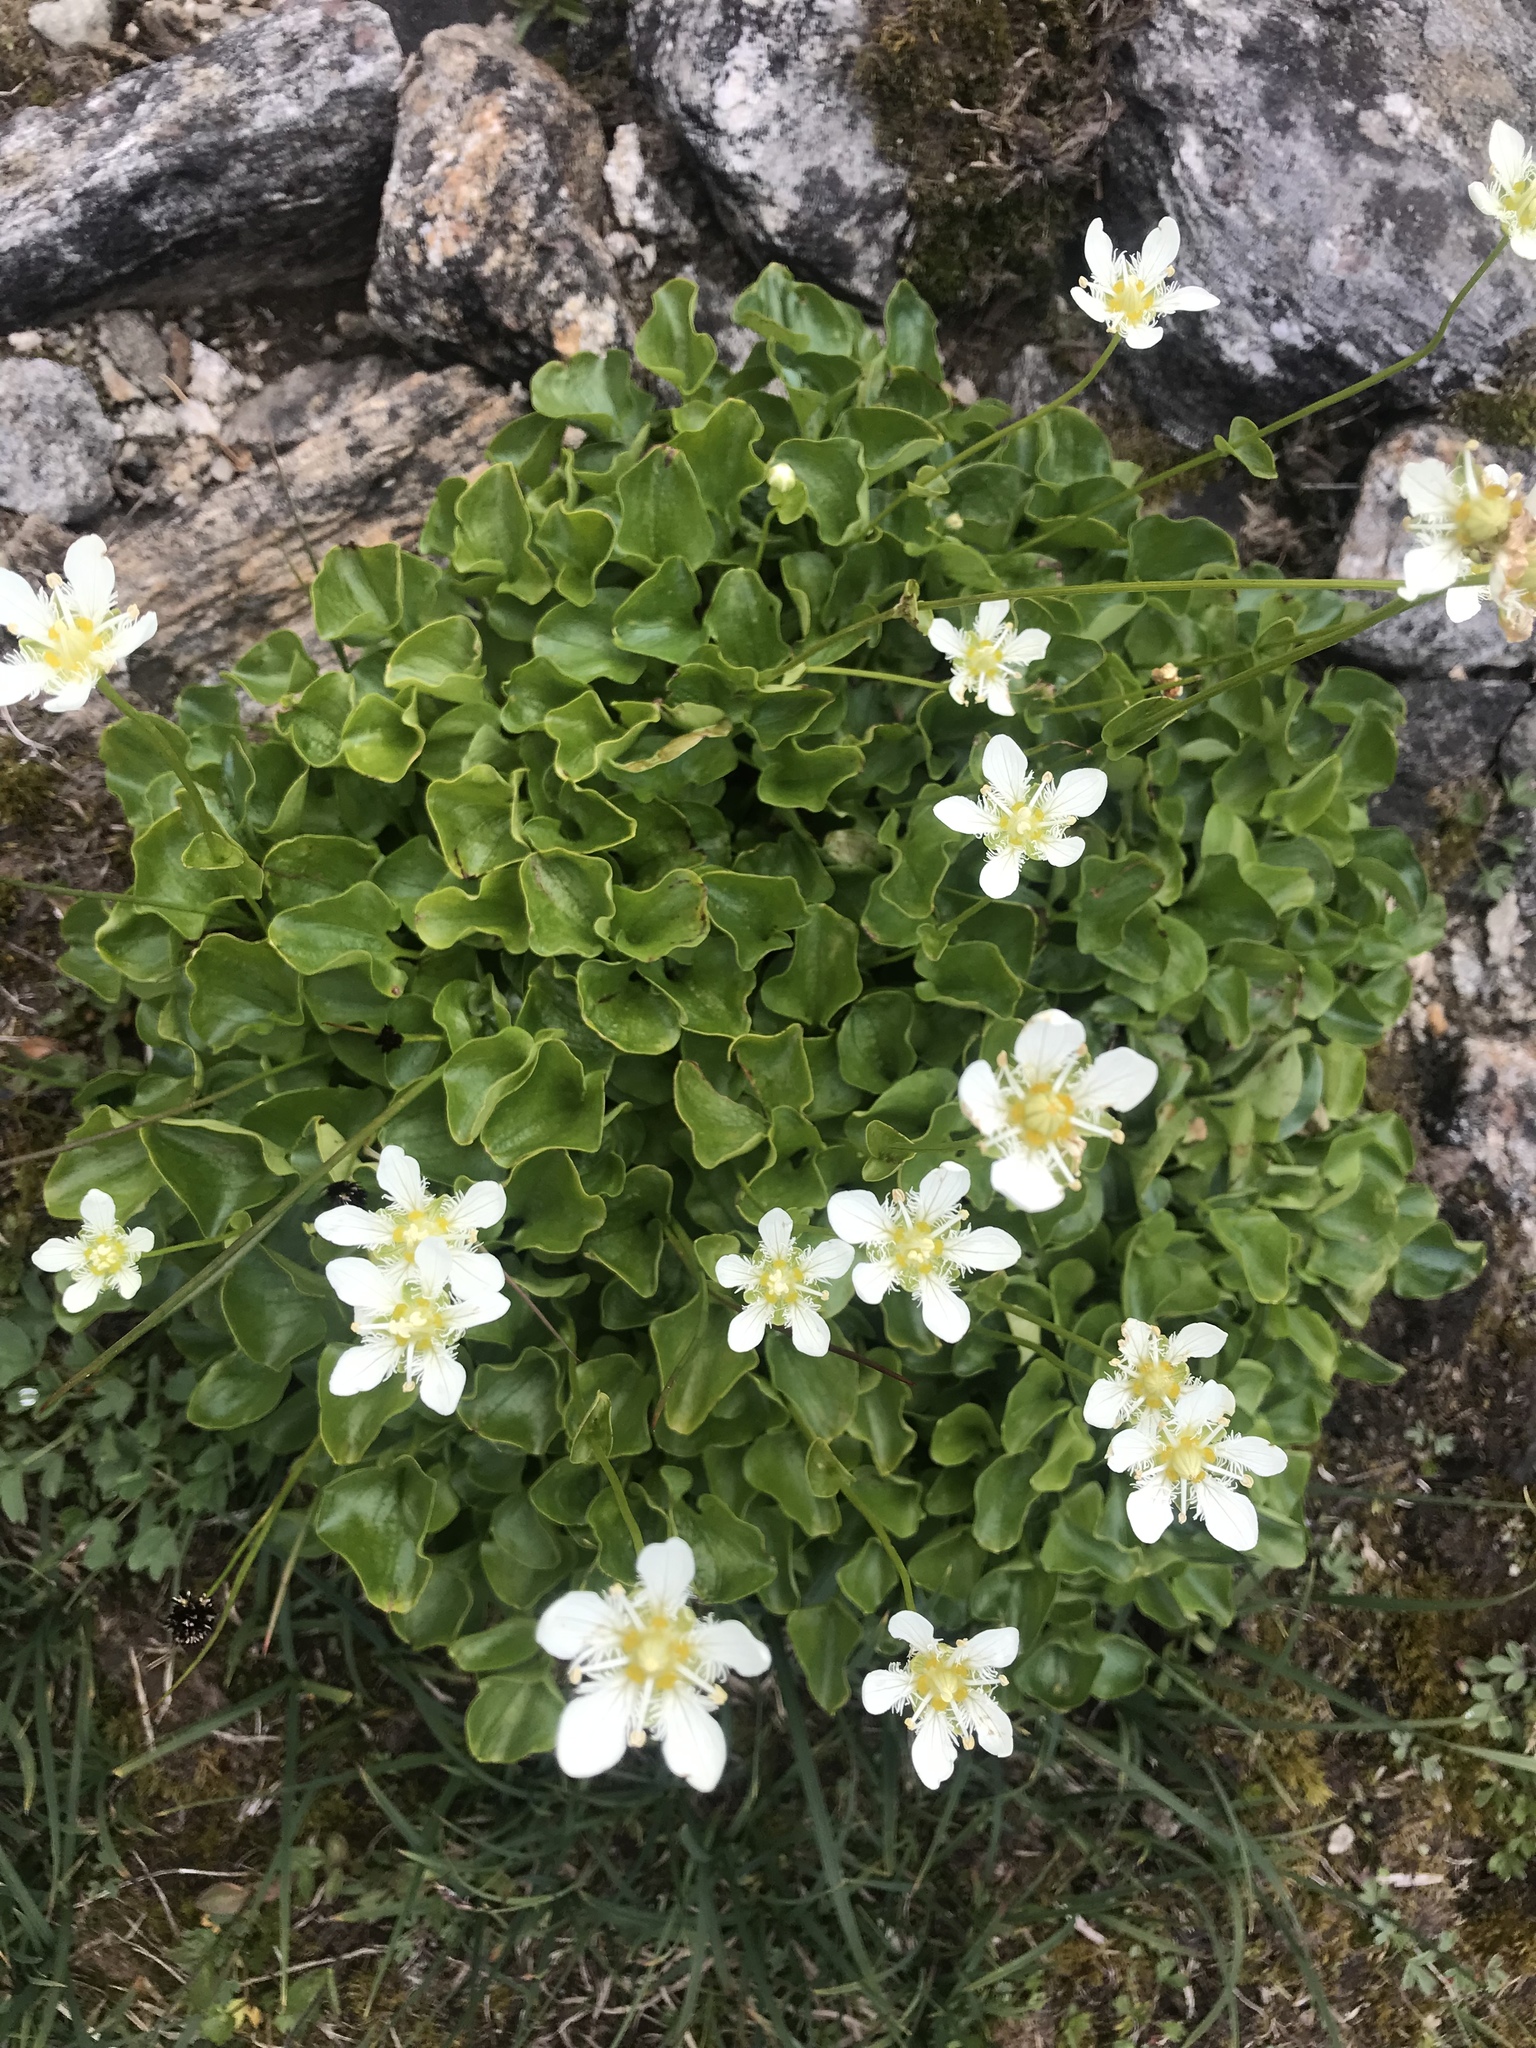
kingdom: Plantae
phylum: Tracheophyta
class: Magnoliopsida
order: Celastrales
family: Parnassiaceae
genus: Parnassia
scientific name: Parnassia fimbriata
